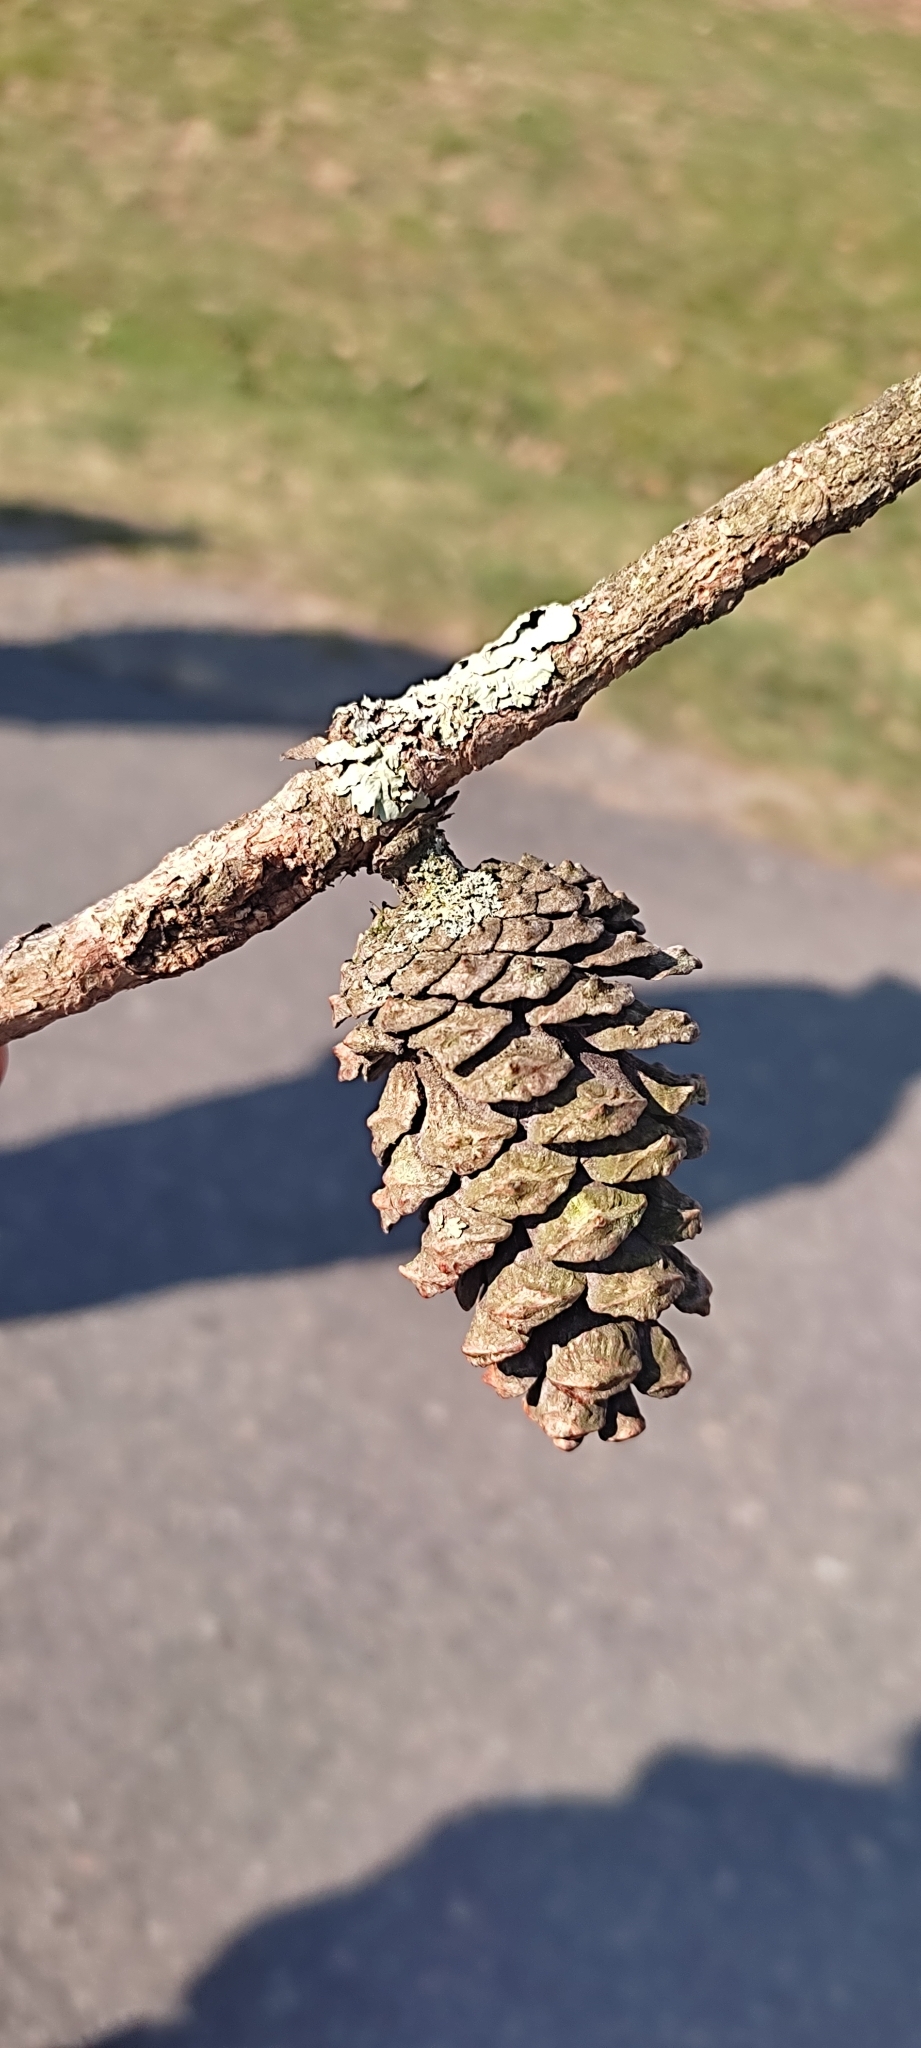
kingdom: Plantae
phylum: Tracheophyta
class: Pinopsida
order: Pinales
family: Pinaceae
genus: Pinus
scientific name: Pinus virginiana
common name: Scrub pine
